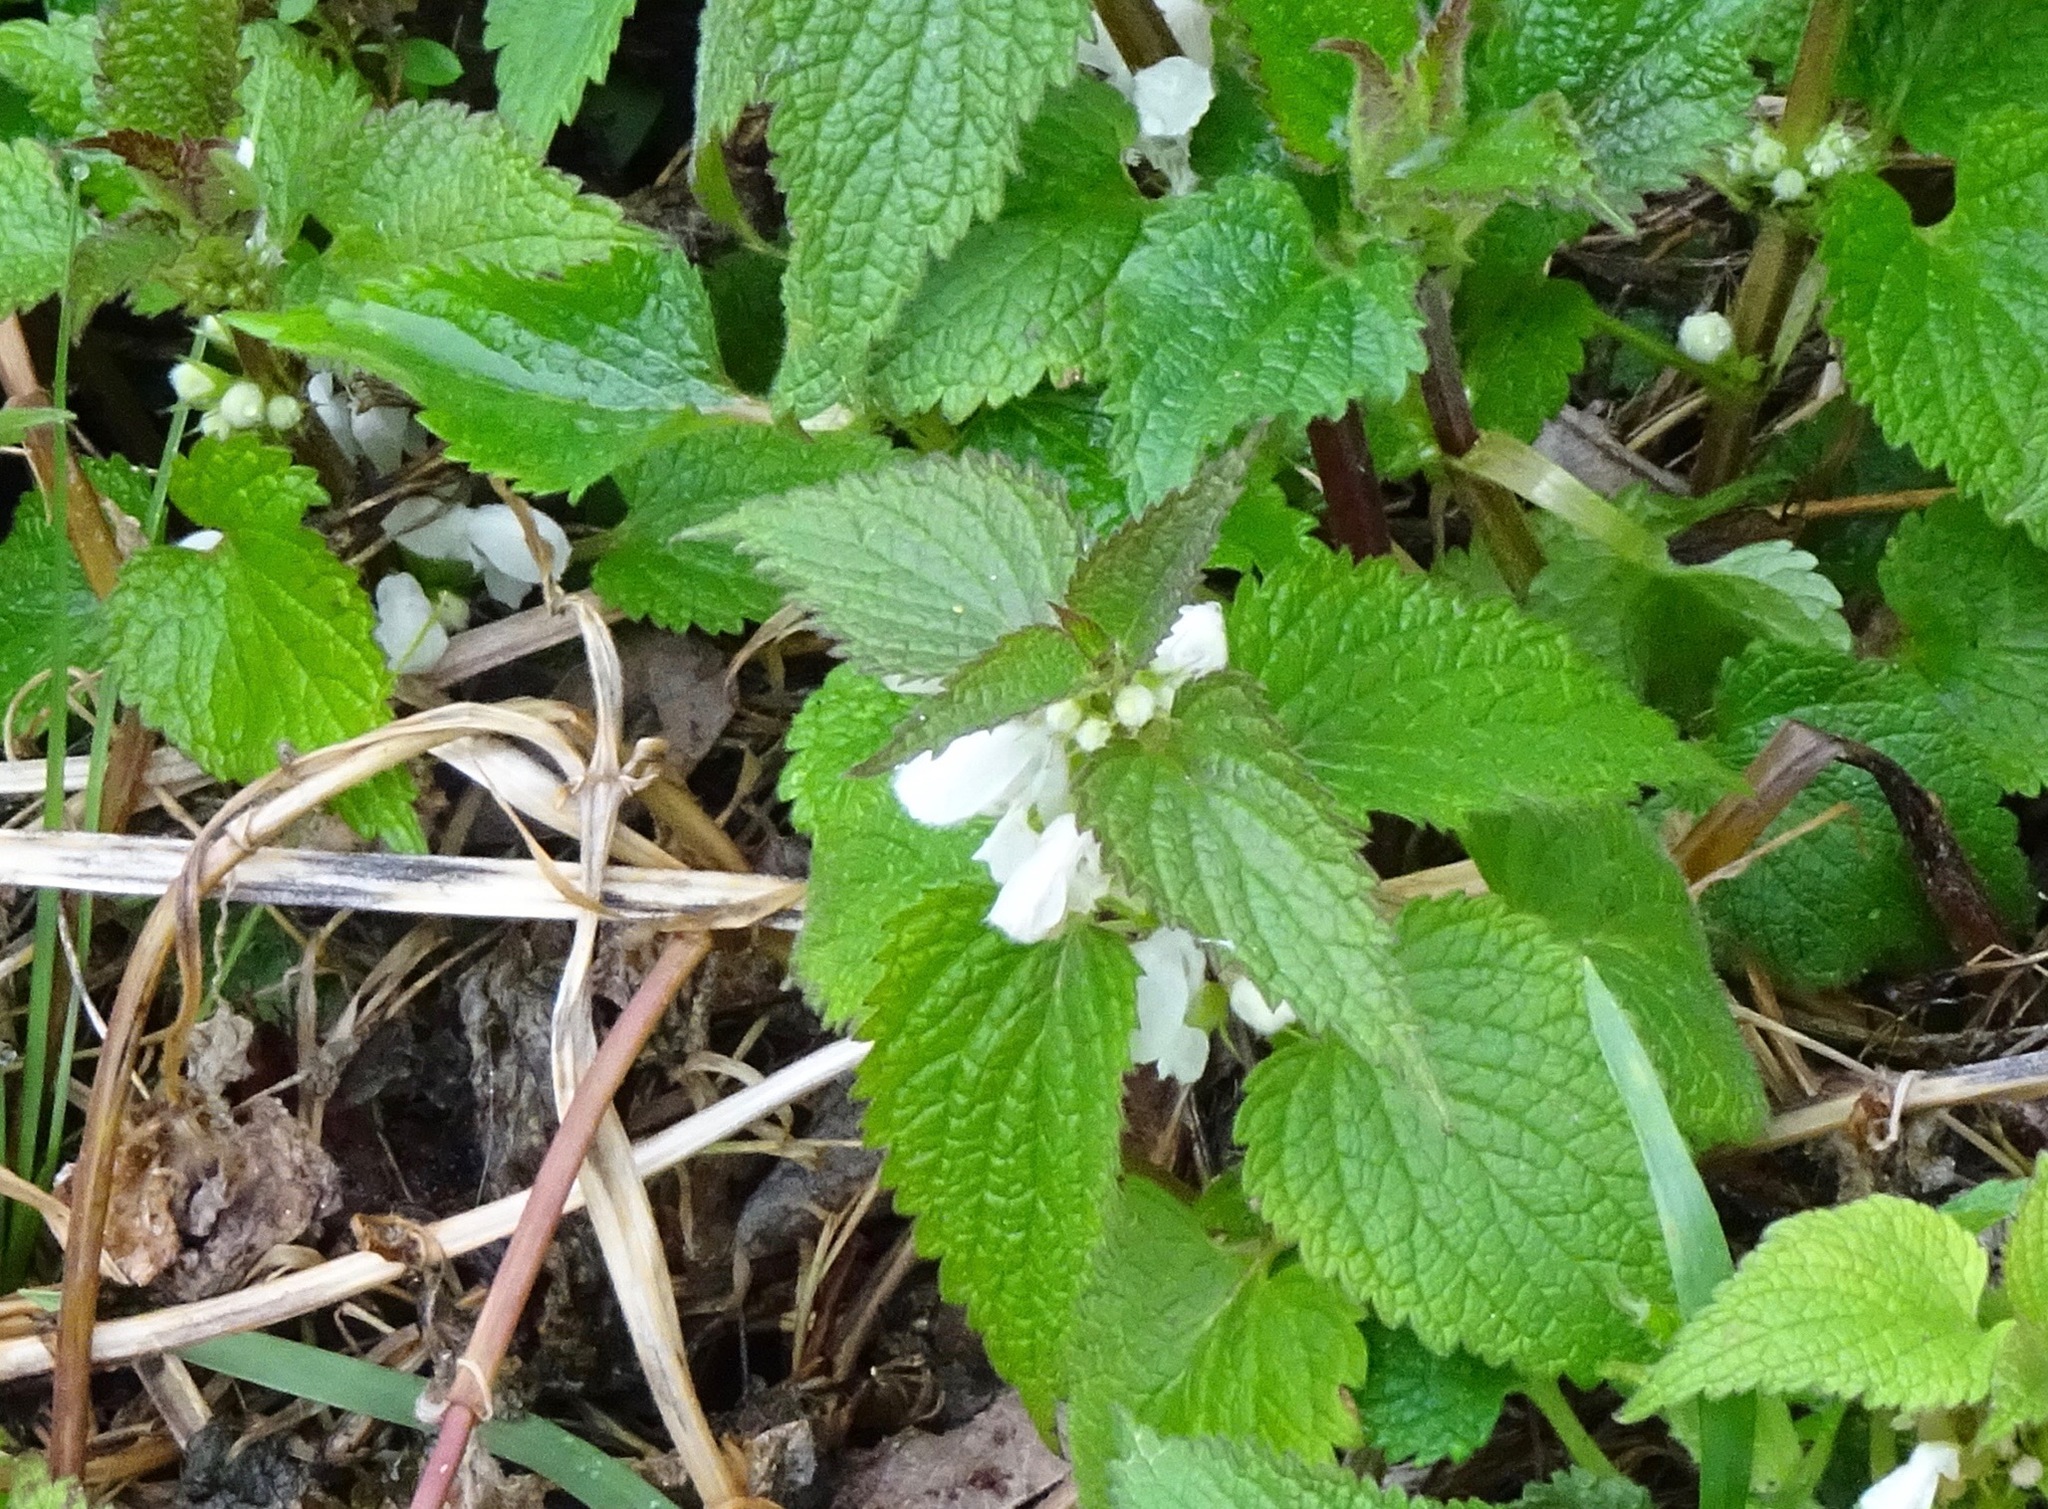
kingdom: Plantae
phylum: Tracheophyta
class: Magnoliopsida
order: Lamiales
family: Lamiaceae
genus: Lamium
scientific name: Lamium album
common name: White dead-nettle
